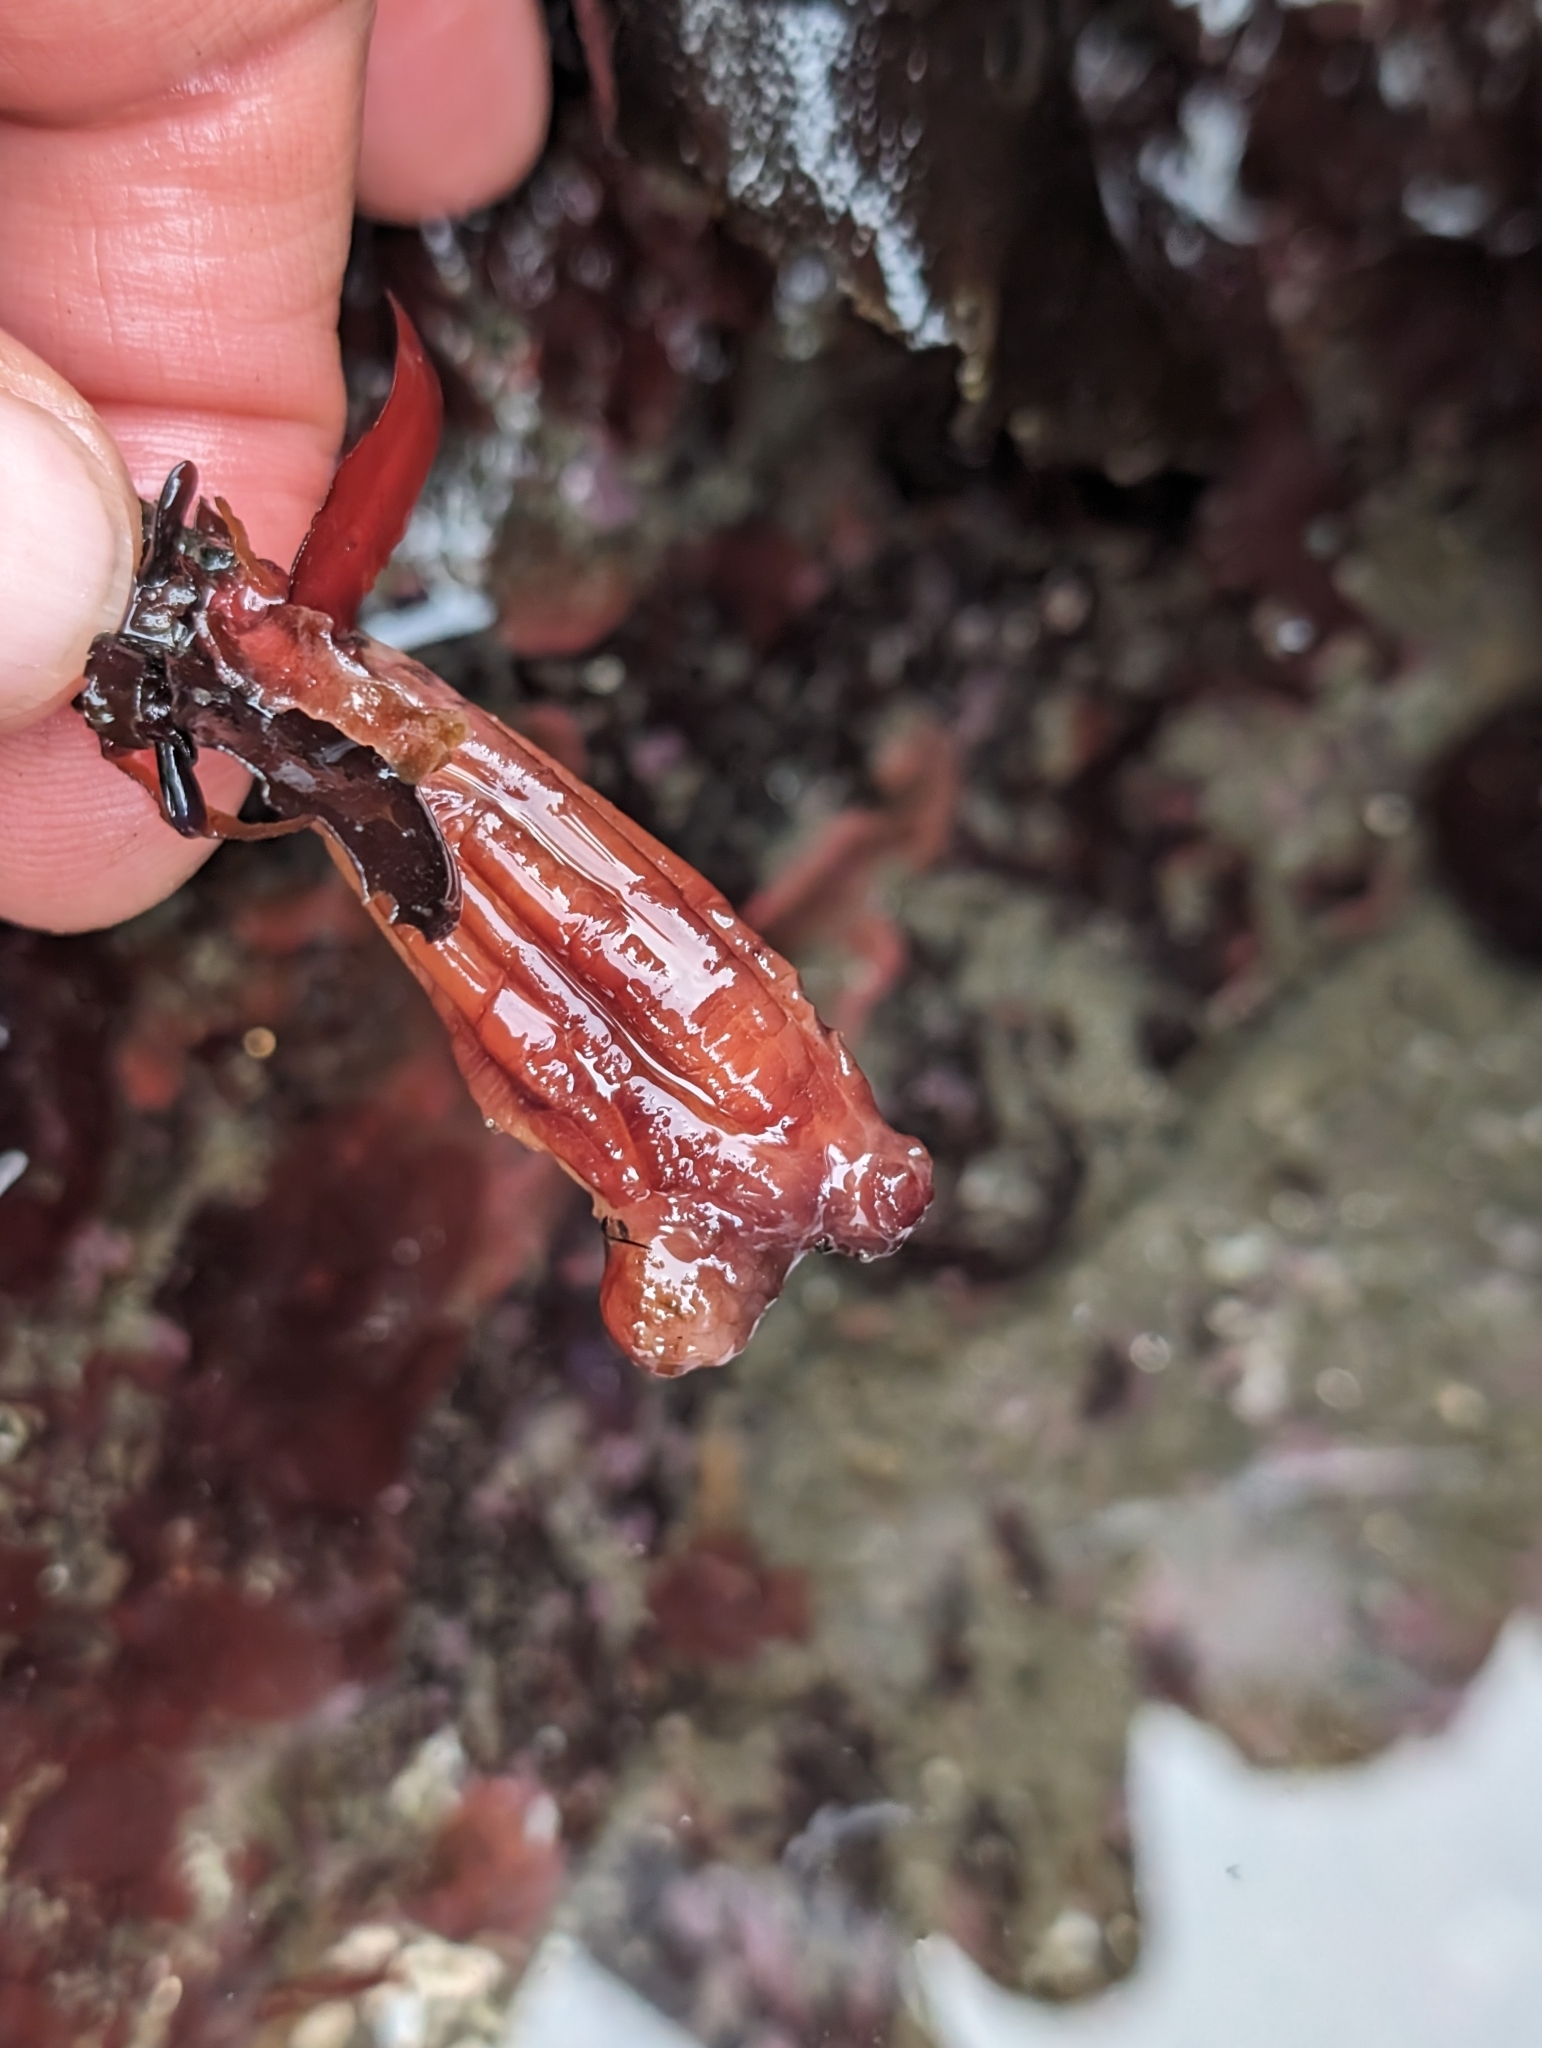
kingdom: Animalia
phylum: Chordata
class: Ascidiacea
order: Stolidobranchia
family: Styelidae
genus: Styela
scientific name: Styela montereyensis
